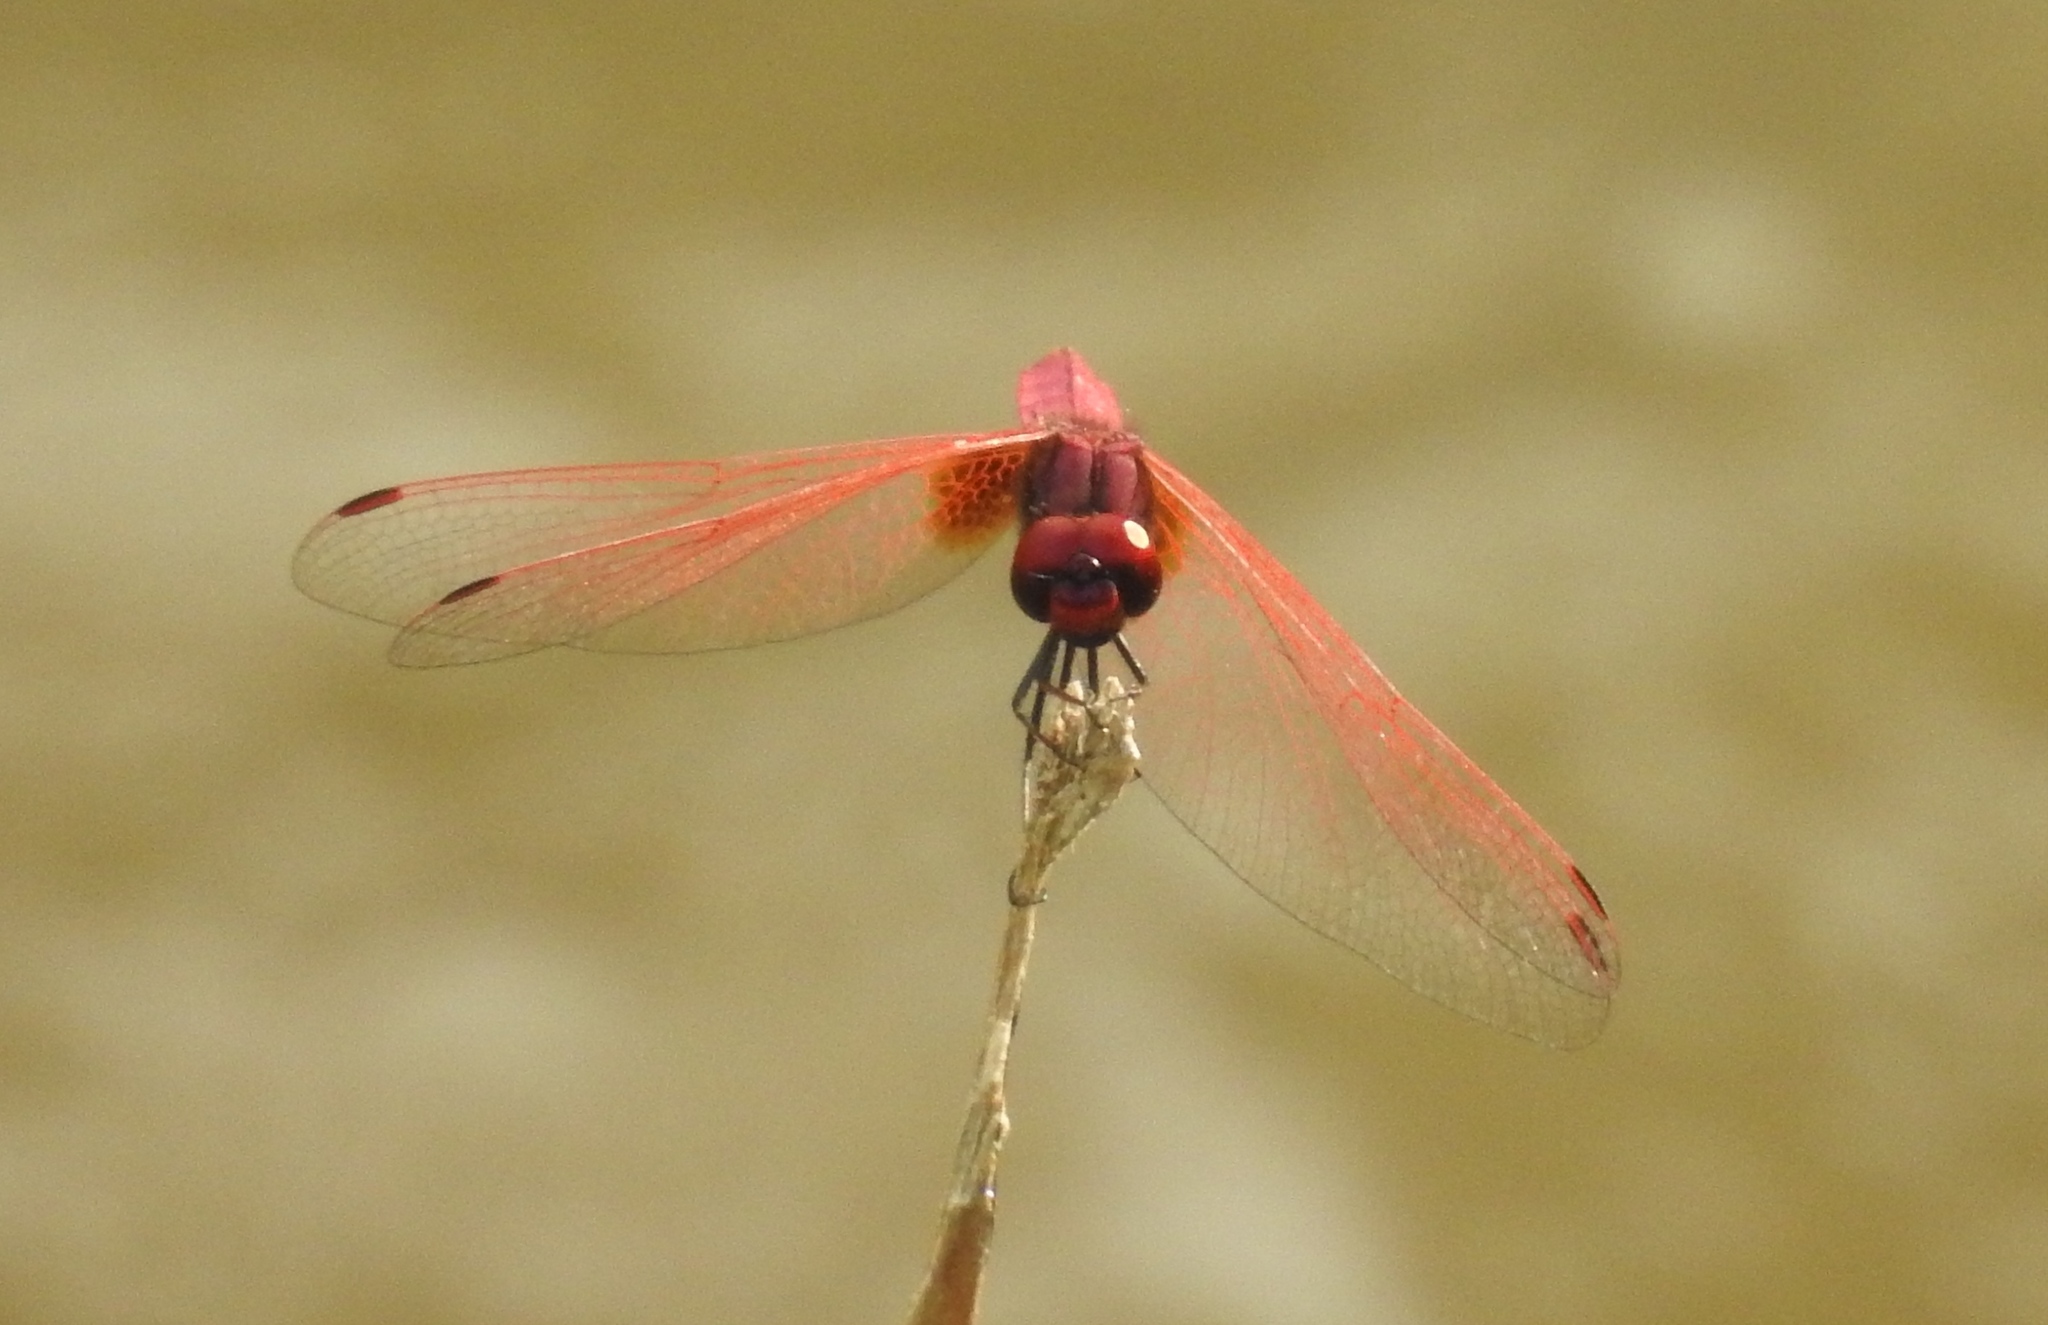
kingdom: Animalia
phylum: Arthropoda
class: Insecta
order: Odonata
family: Libellulidae
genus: Trithemis
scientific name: Trithemis aurora
